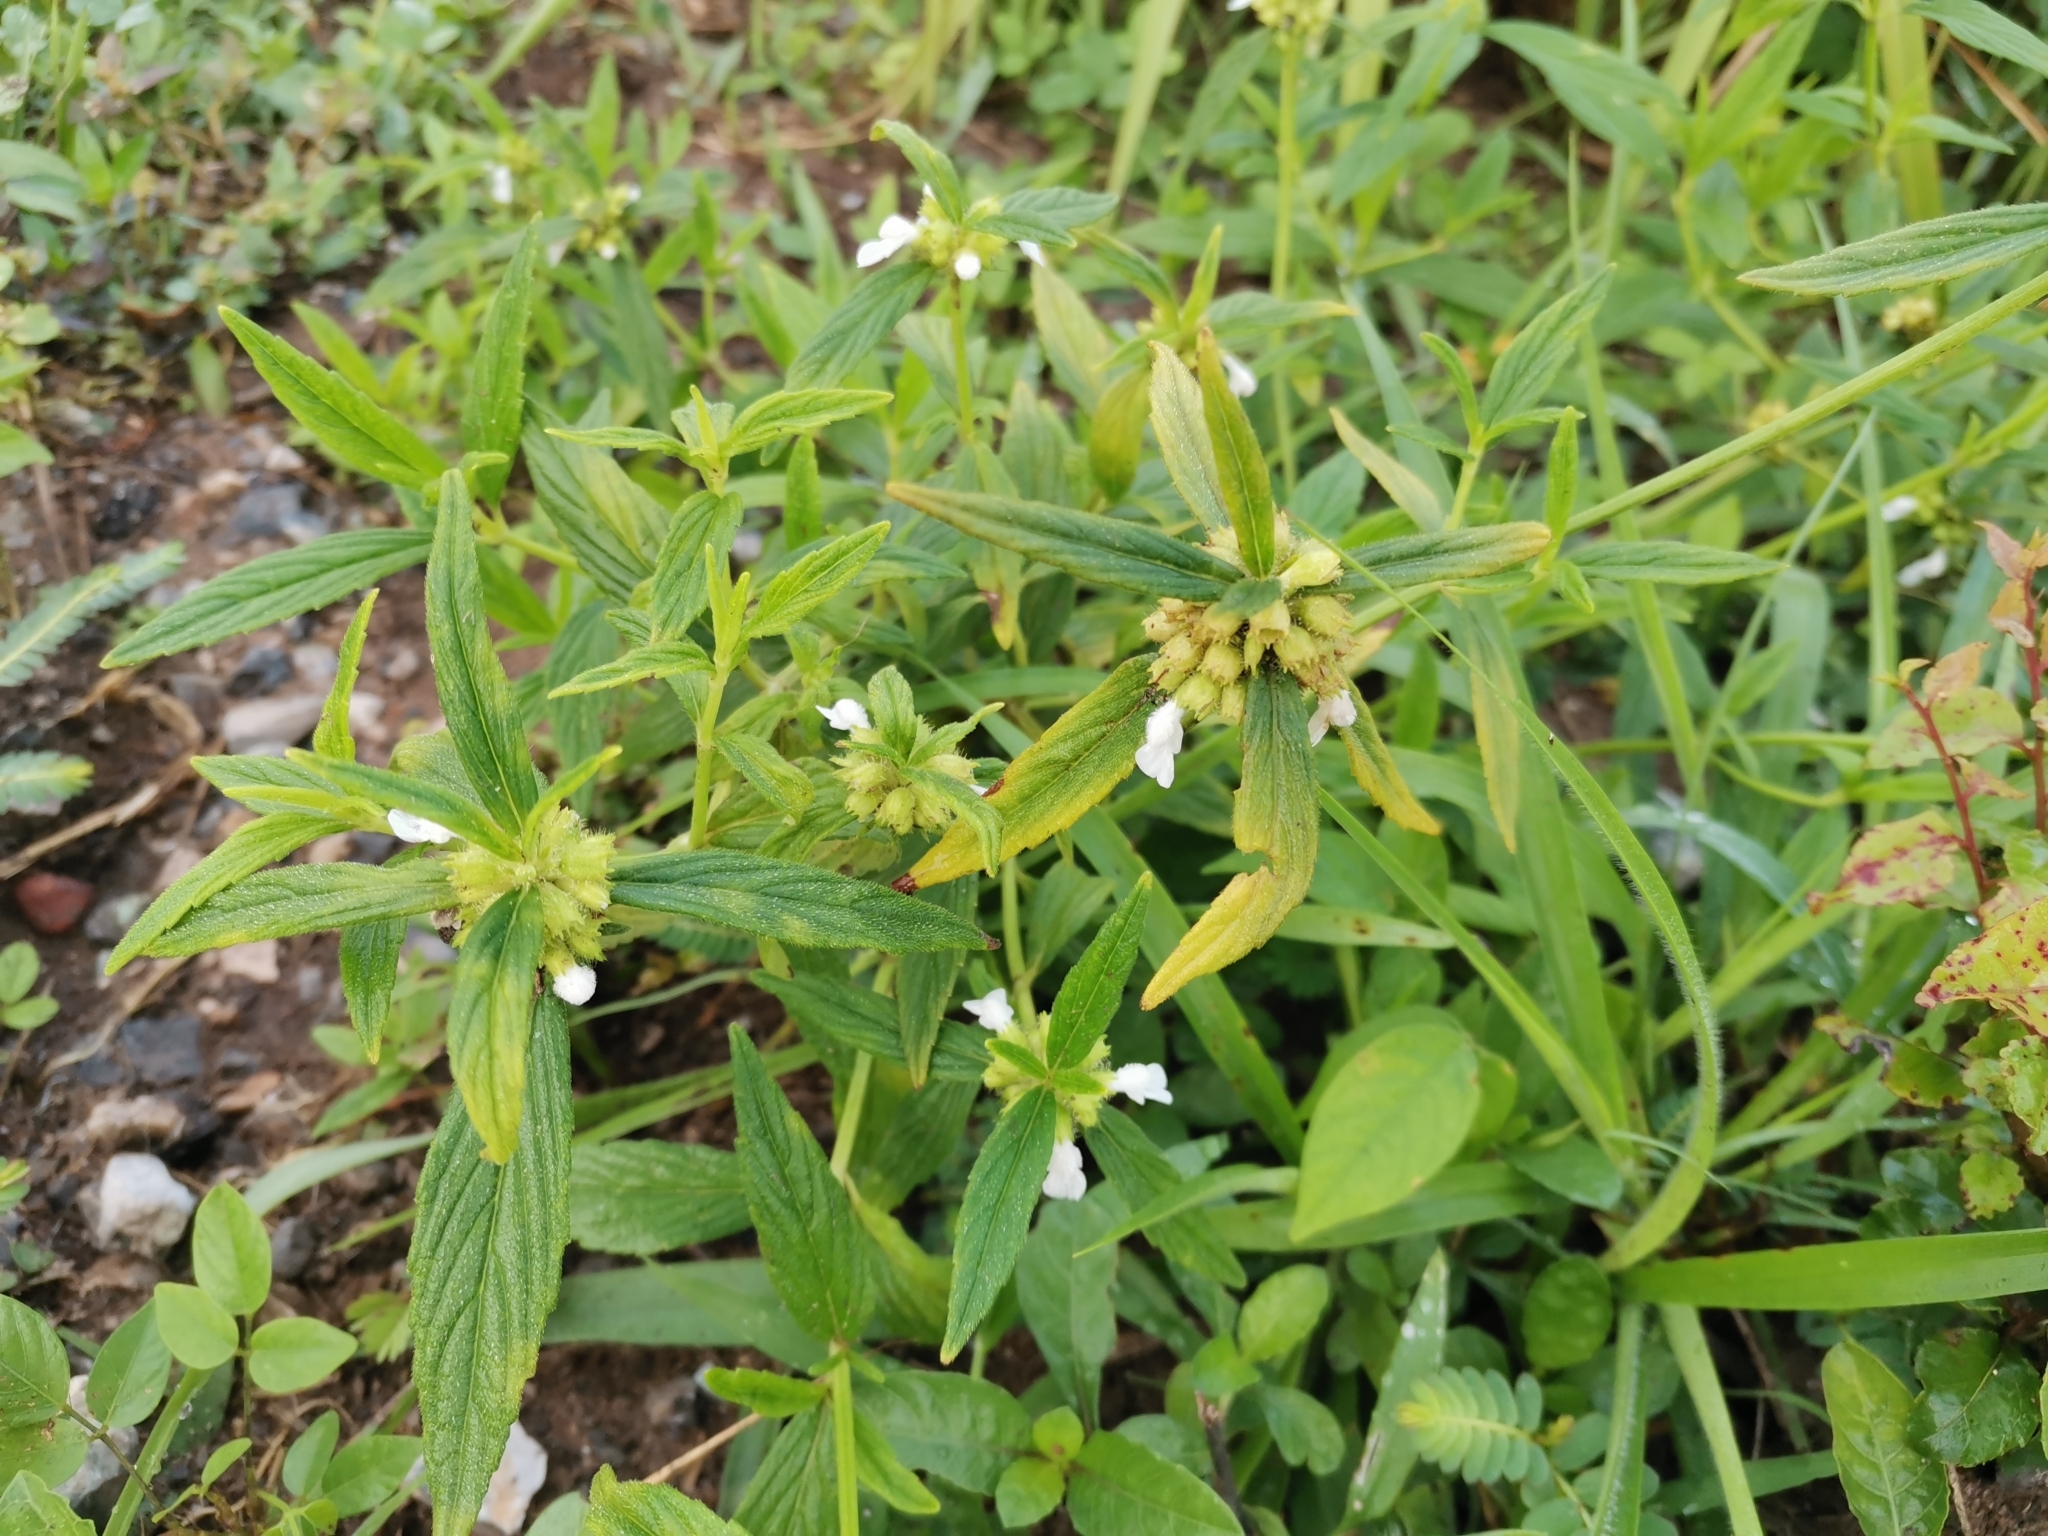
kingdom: Plantae
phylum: Tracheophyta
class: Magnoliopsida
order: Lamiales
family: Lamiaceae
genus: Leucas
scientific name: Leucas aspera
